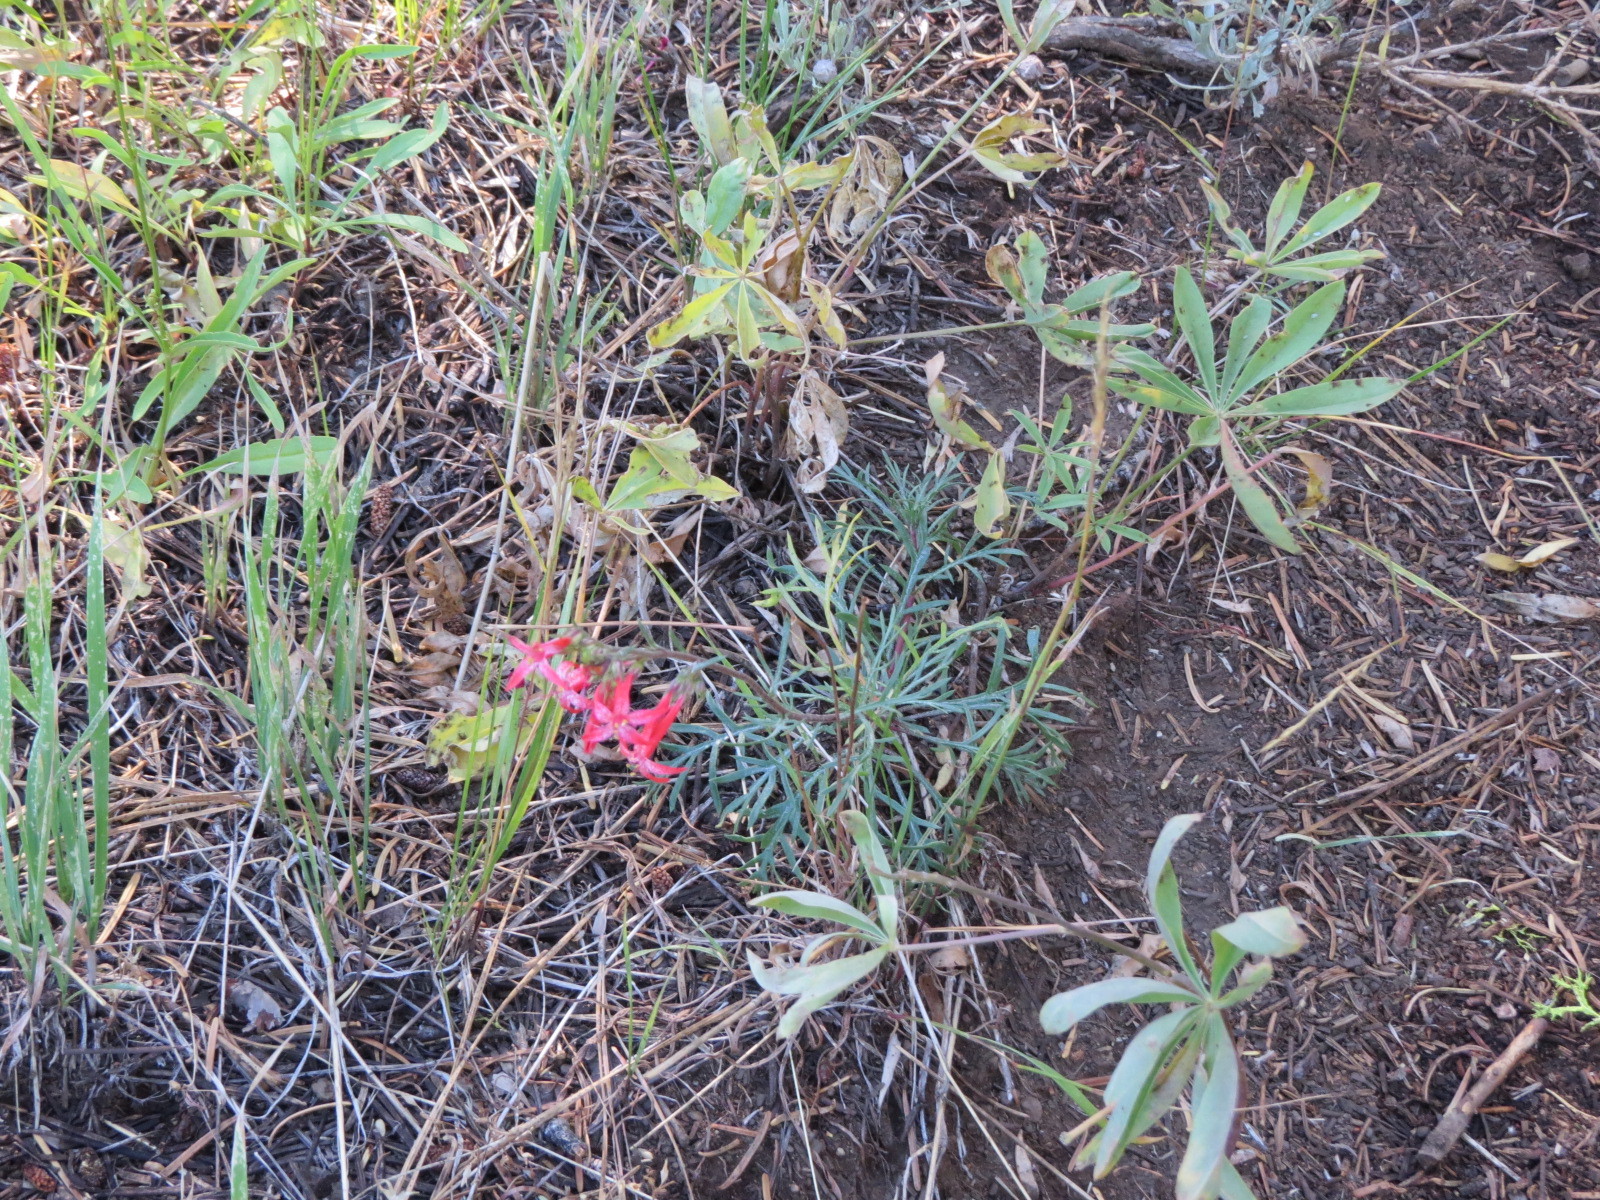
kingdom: Plantae
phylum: Tracheophyta
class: Magnoliopsida
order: Ericales
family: Polemoniaceae
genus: Ipomopsis
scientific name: Ipomopsis aggregata
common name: Scarlet gilia
